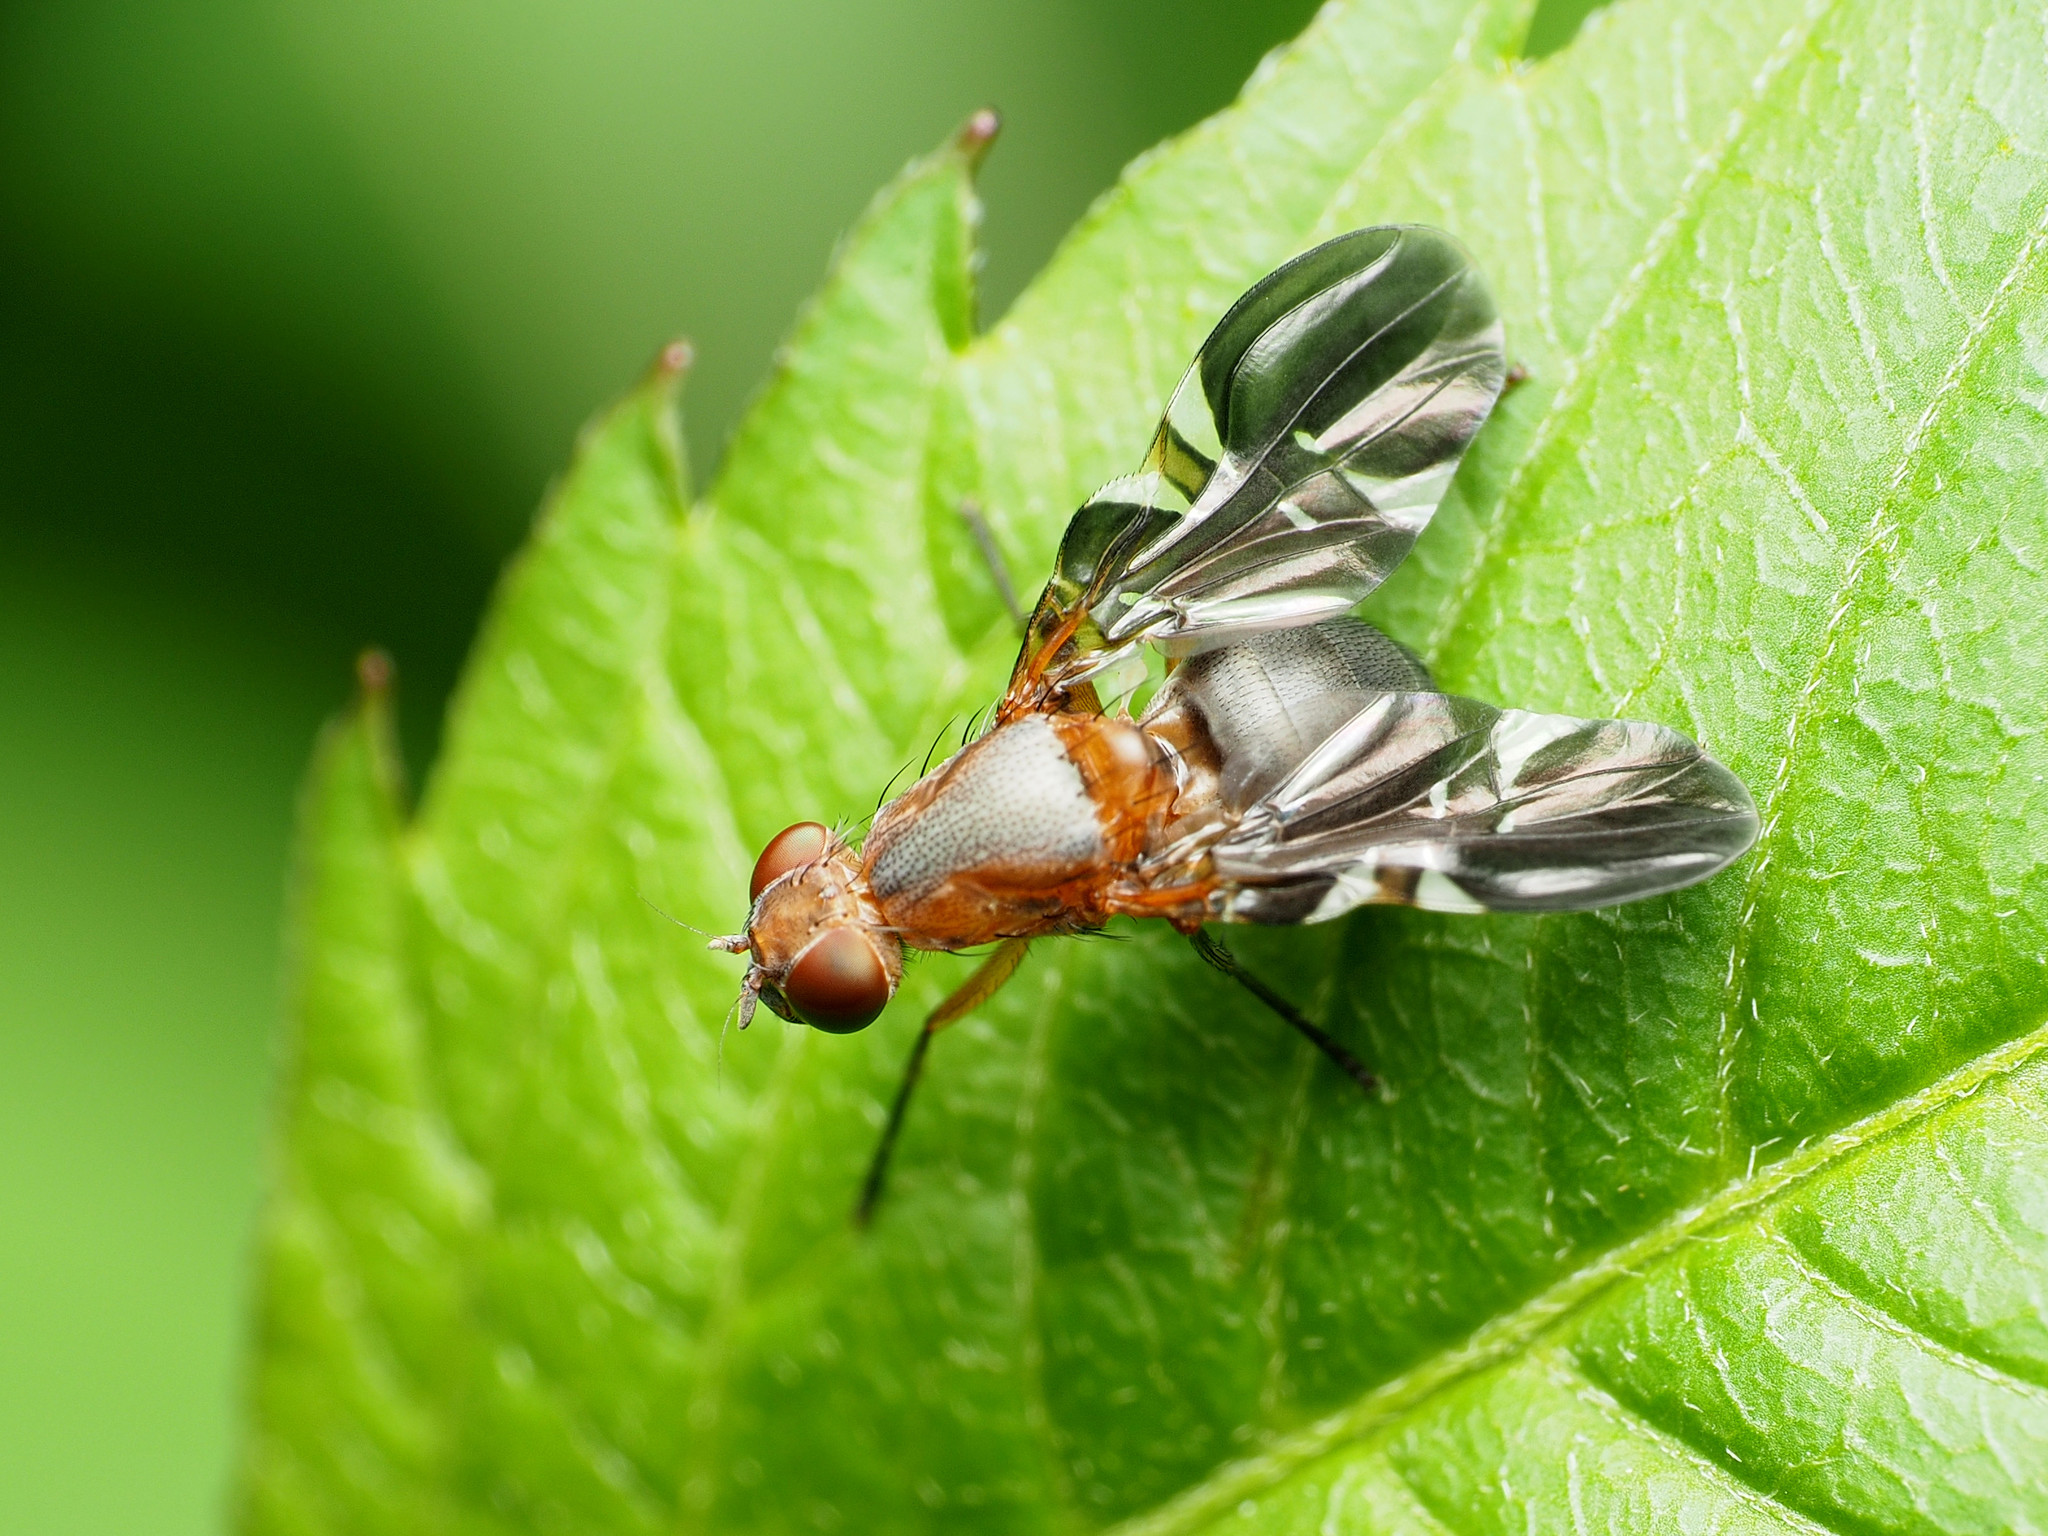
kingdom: Animalia
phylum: Arthropoda
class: Insecta
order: Diptera
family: Ulidiidae
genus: Delphinia
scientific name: Delphinia picta
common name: Common picture-winged fly
